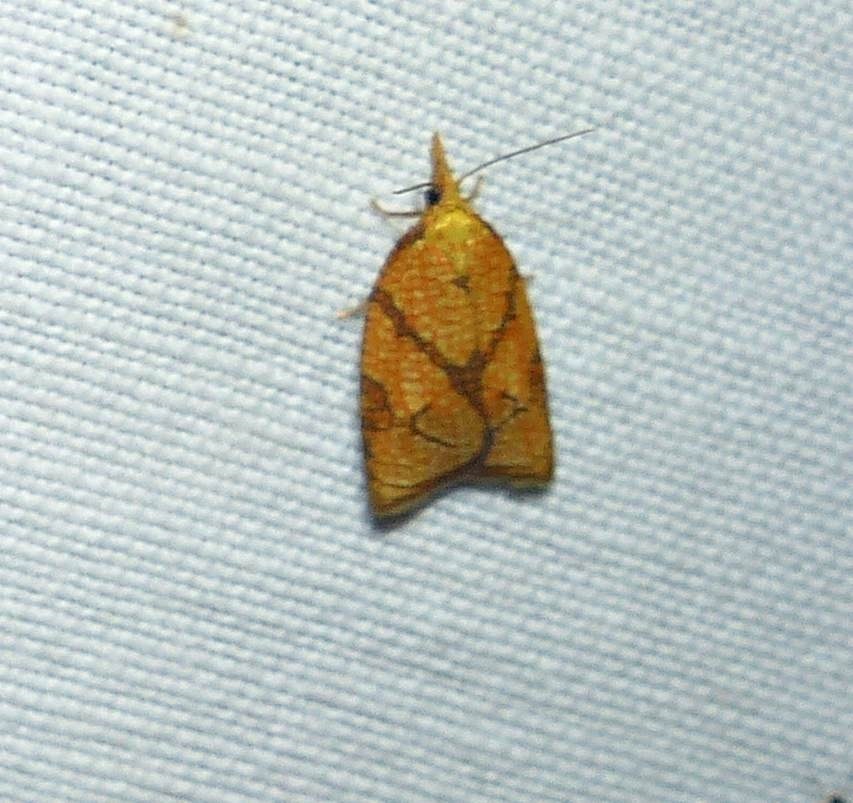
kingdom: Animalia
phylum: Arthropoda
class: Insecta
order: Lepidoptera
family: Tortricidae
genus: Cenopis
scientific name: Cenopis reticulatana
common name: Reticulated fruitworm moth
